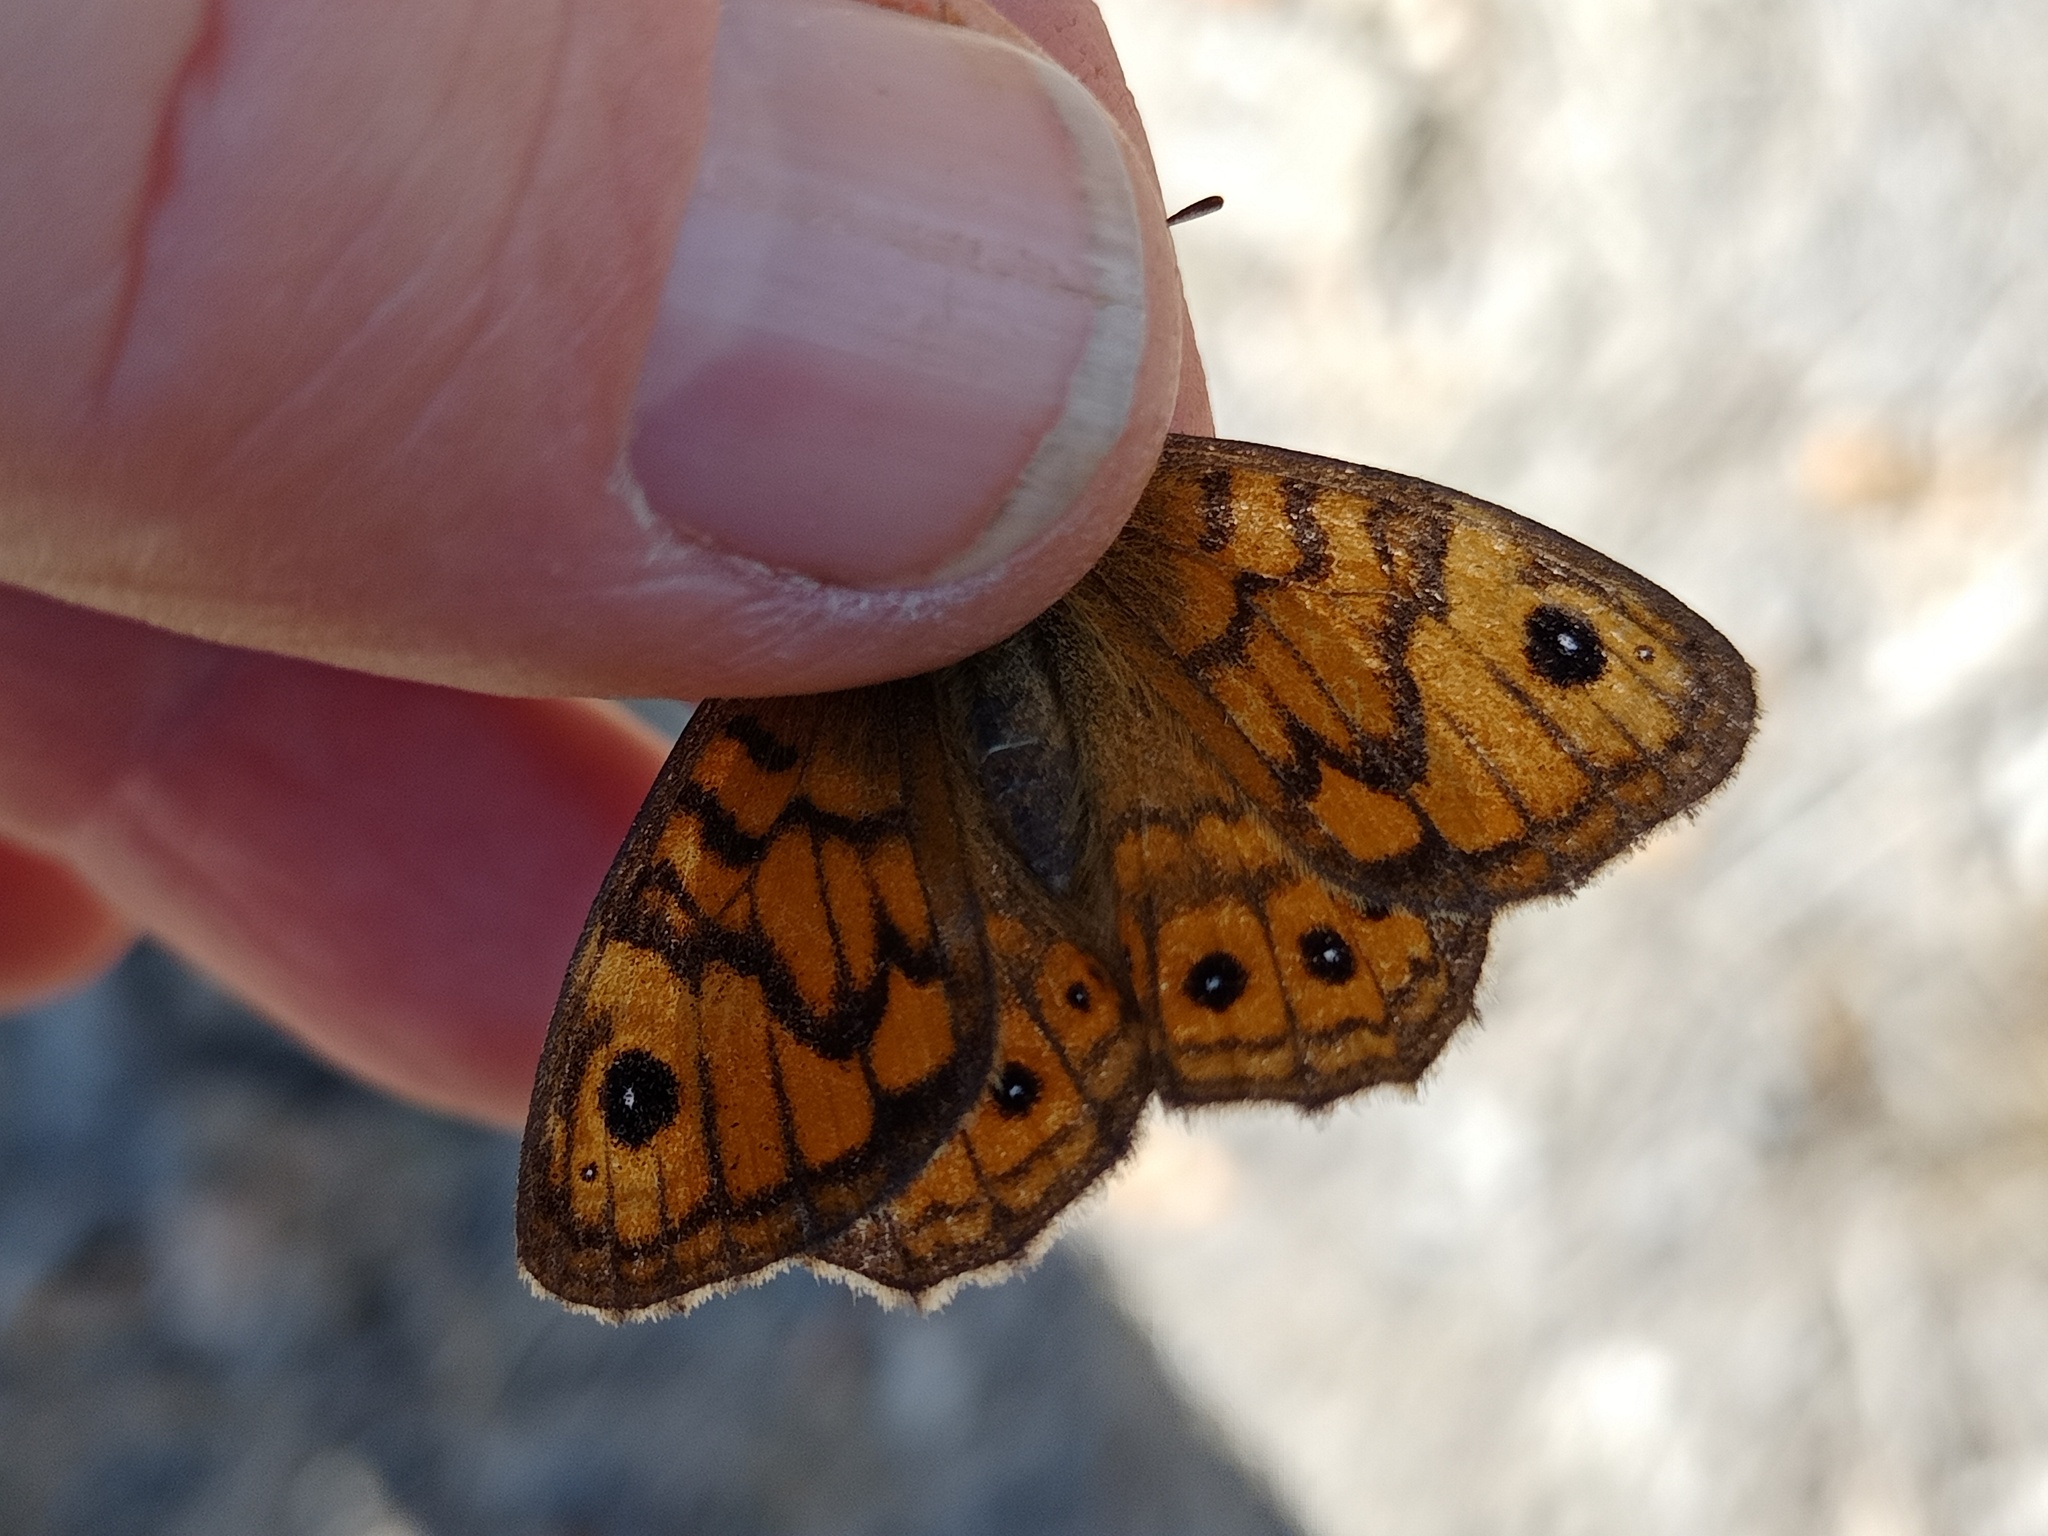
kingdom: Animalia
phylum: Arthropoda
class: Insecta
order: Lepidoptera
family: Nymphalidae
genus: Pararge
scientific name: Pararge Lasiommata megera
